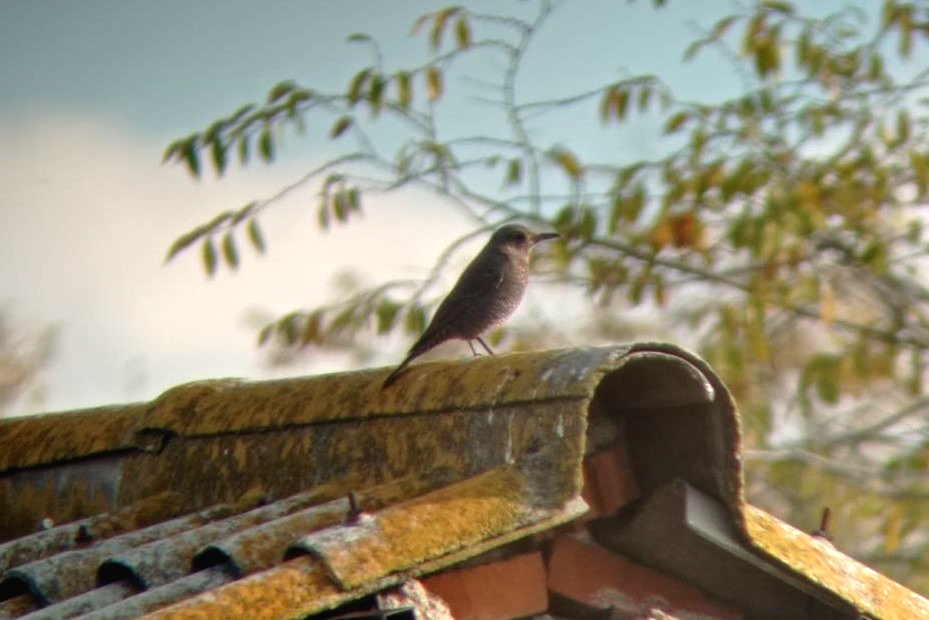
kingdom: Animalia
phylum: Chordata
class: Aves
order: Passeriformes
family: Muscicapidae
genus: Monticola
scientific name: Monticola solitarius
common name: Blue rock thrush
